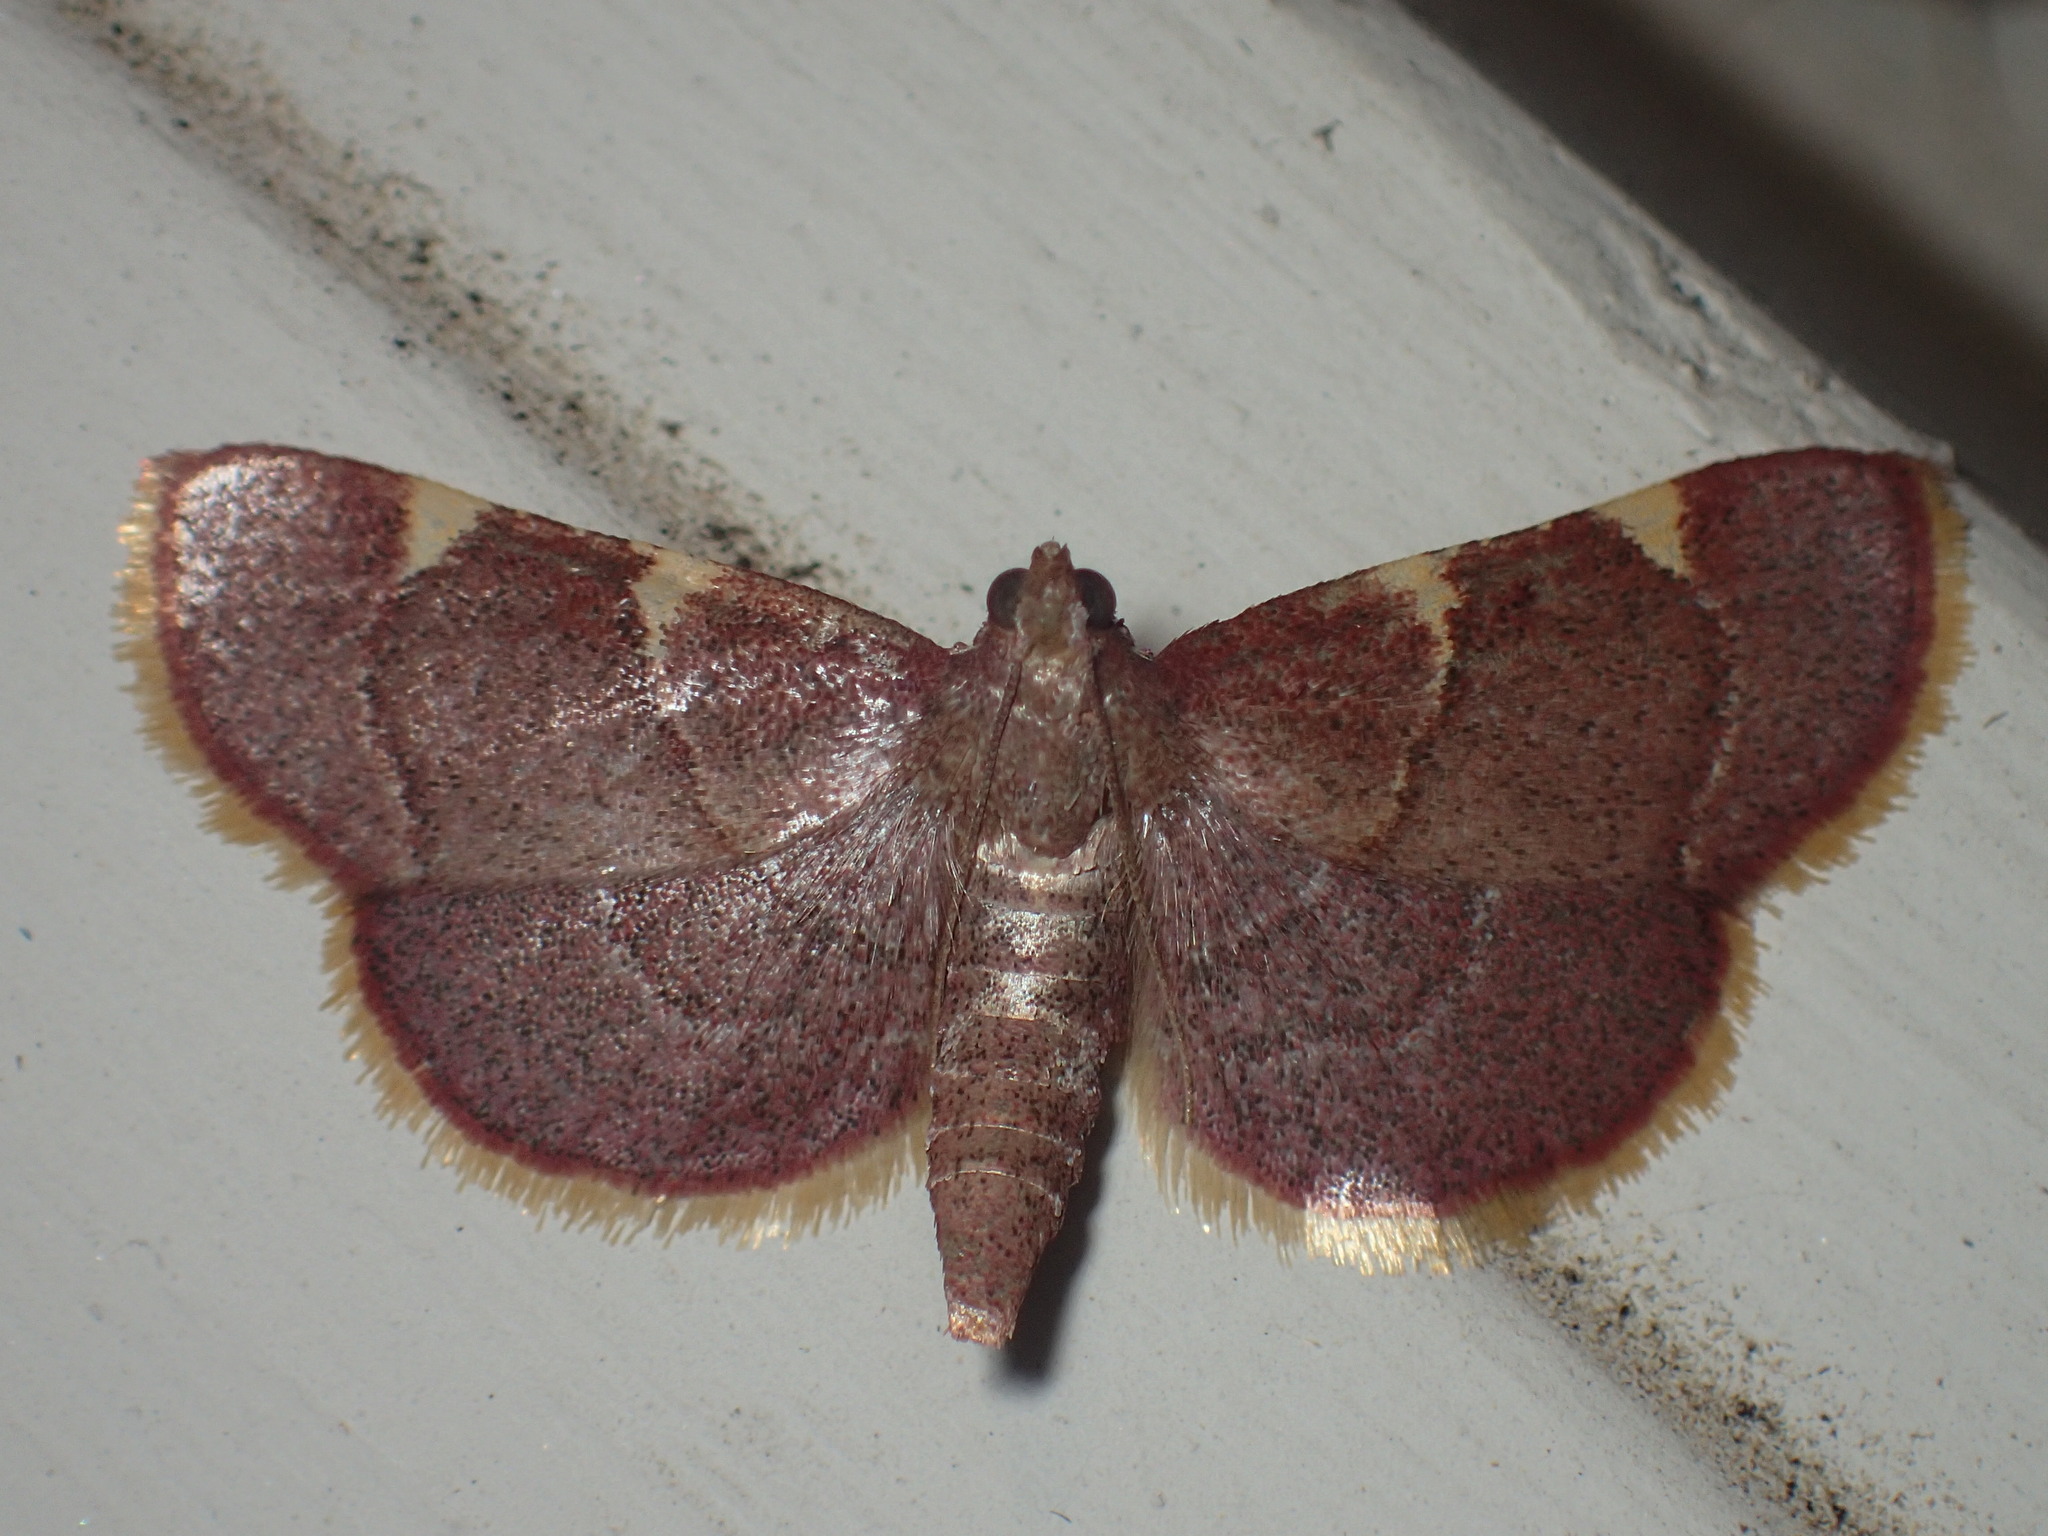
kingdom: Animalia
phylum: Arthropoda
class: Insecta
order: Lepidoptera
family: Pyralidae
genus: Hypsopygia
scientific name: Hypsopygia olinalis
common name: Yellow-fringed dolichomia moth
